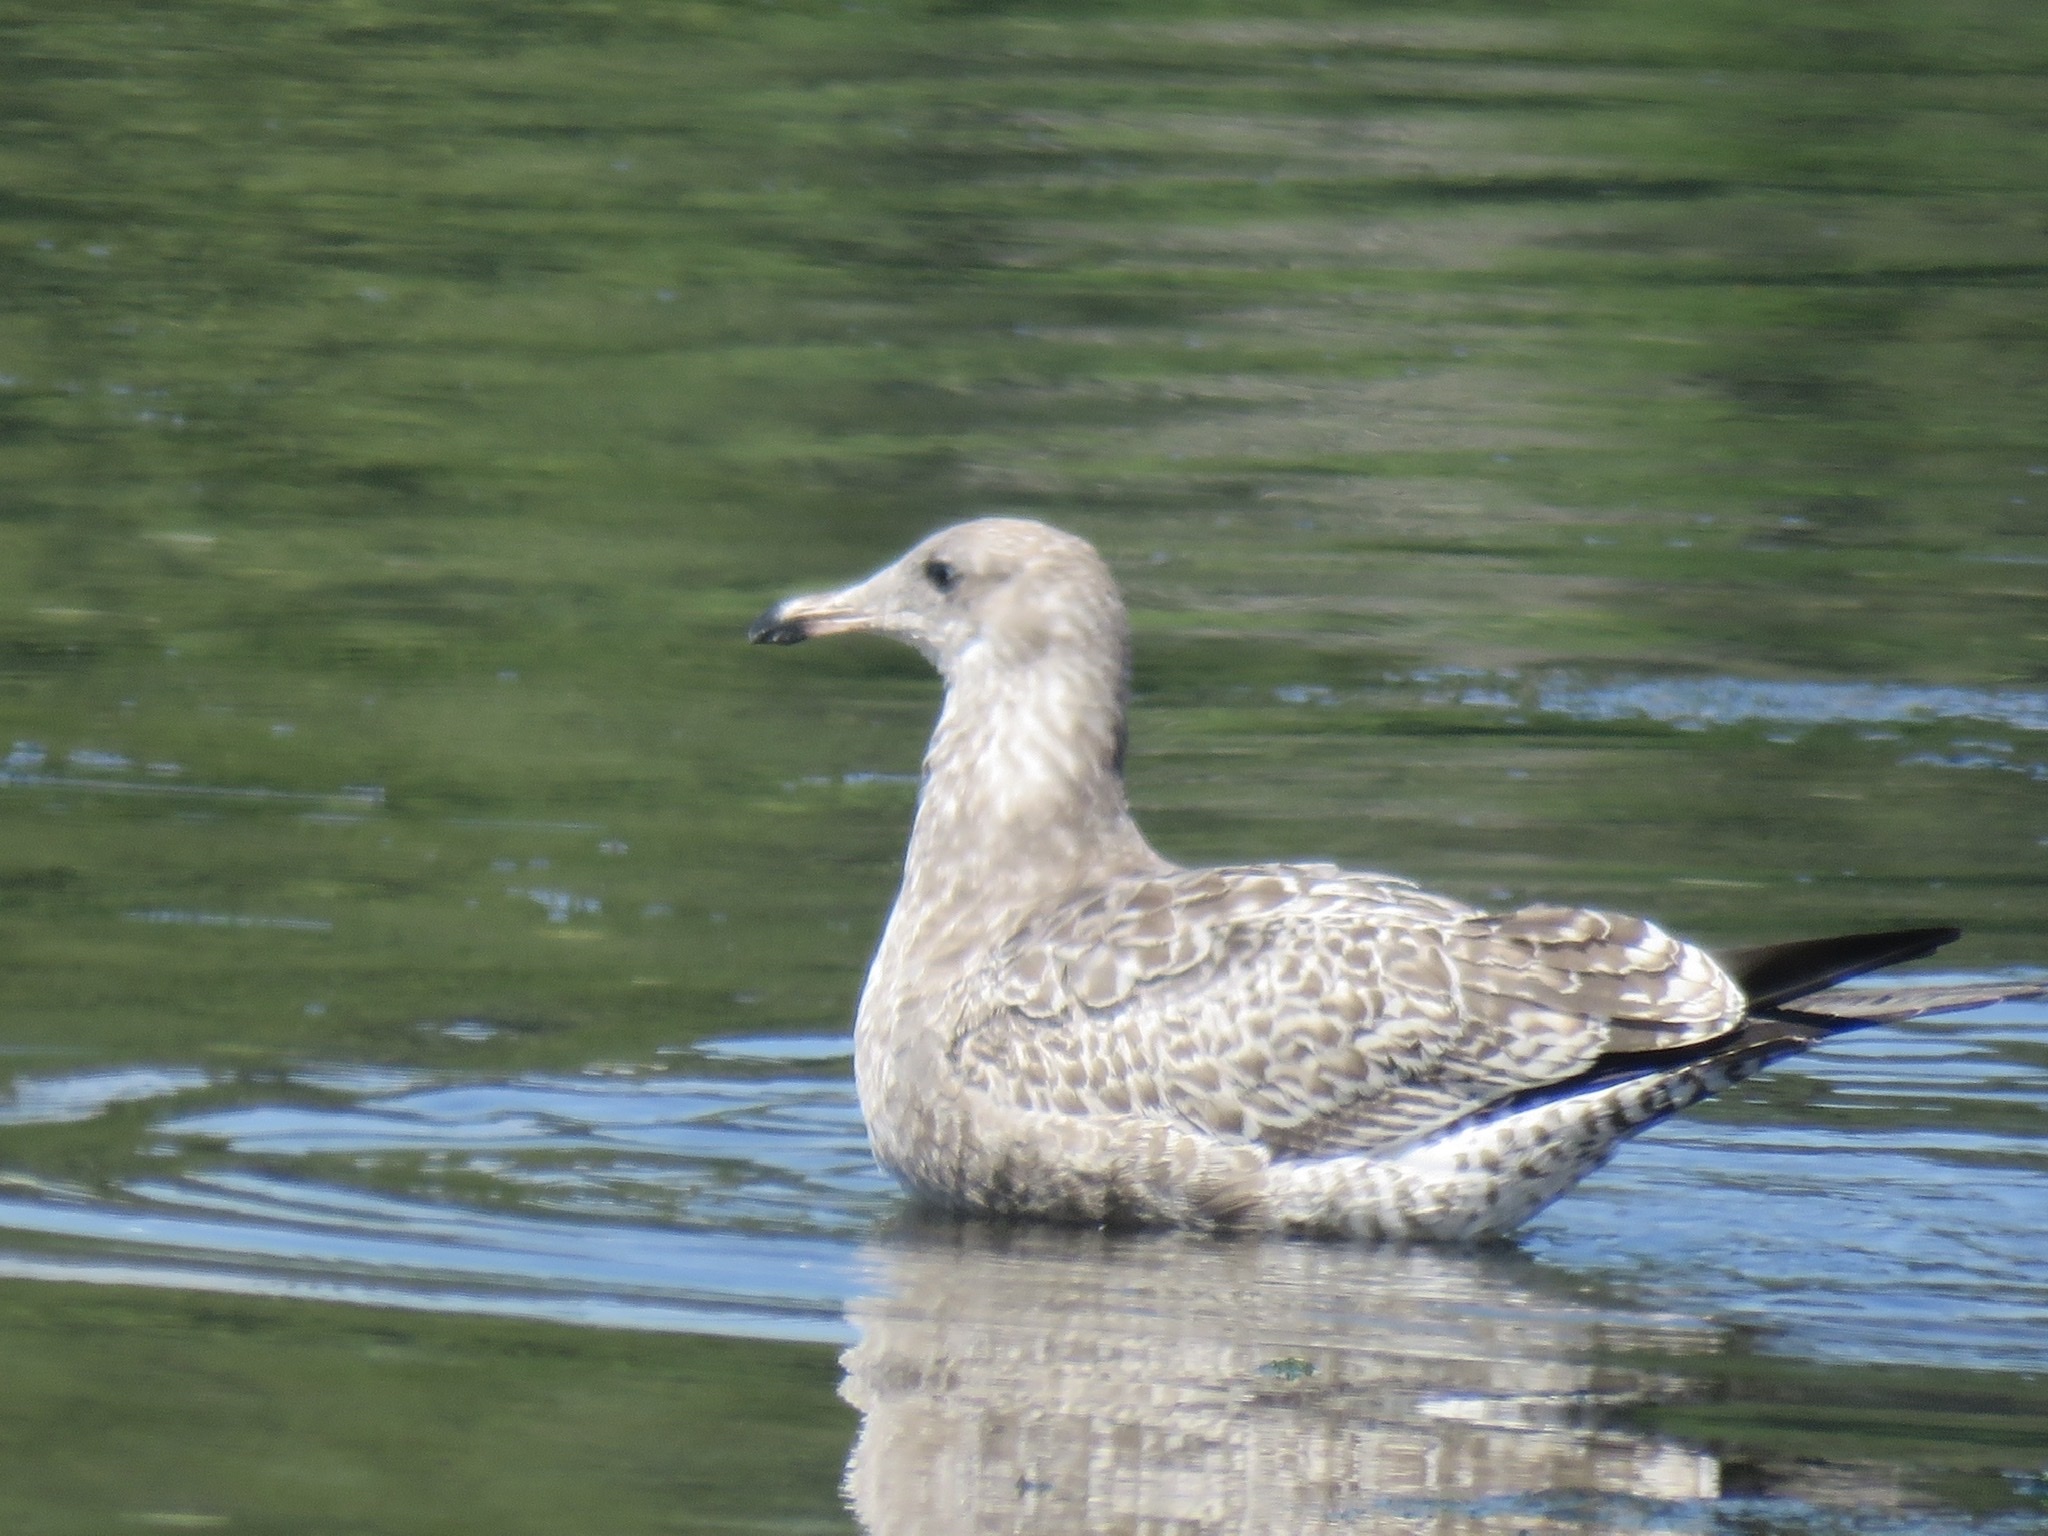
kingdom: Animalia
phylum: Chordata
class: Aves
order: Charadriiformes
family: Laridae
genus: Larus
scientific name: Larus californicus
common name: California gull
